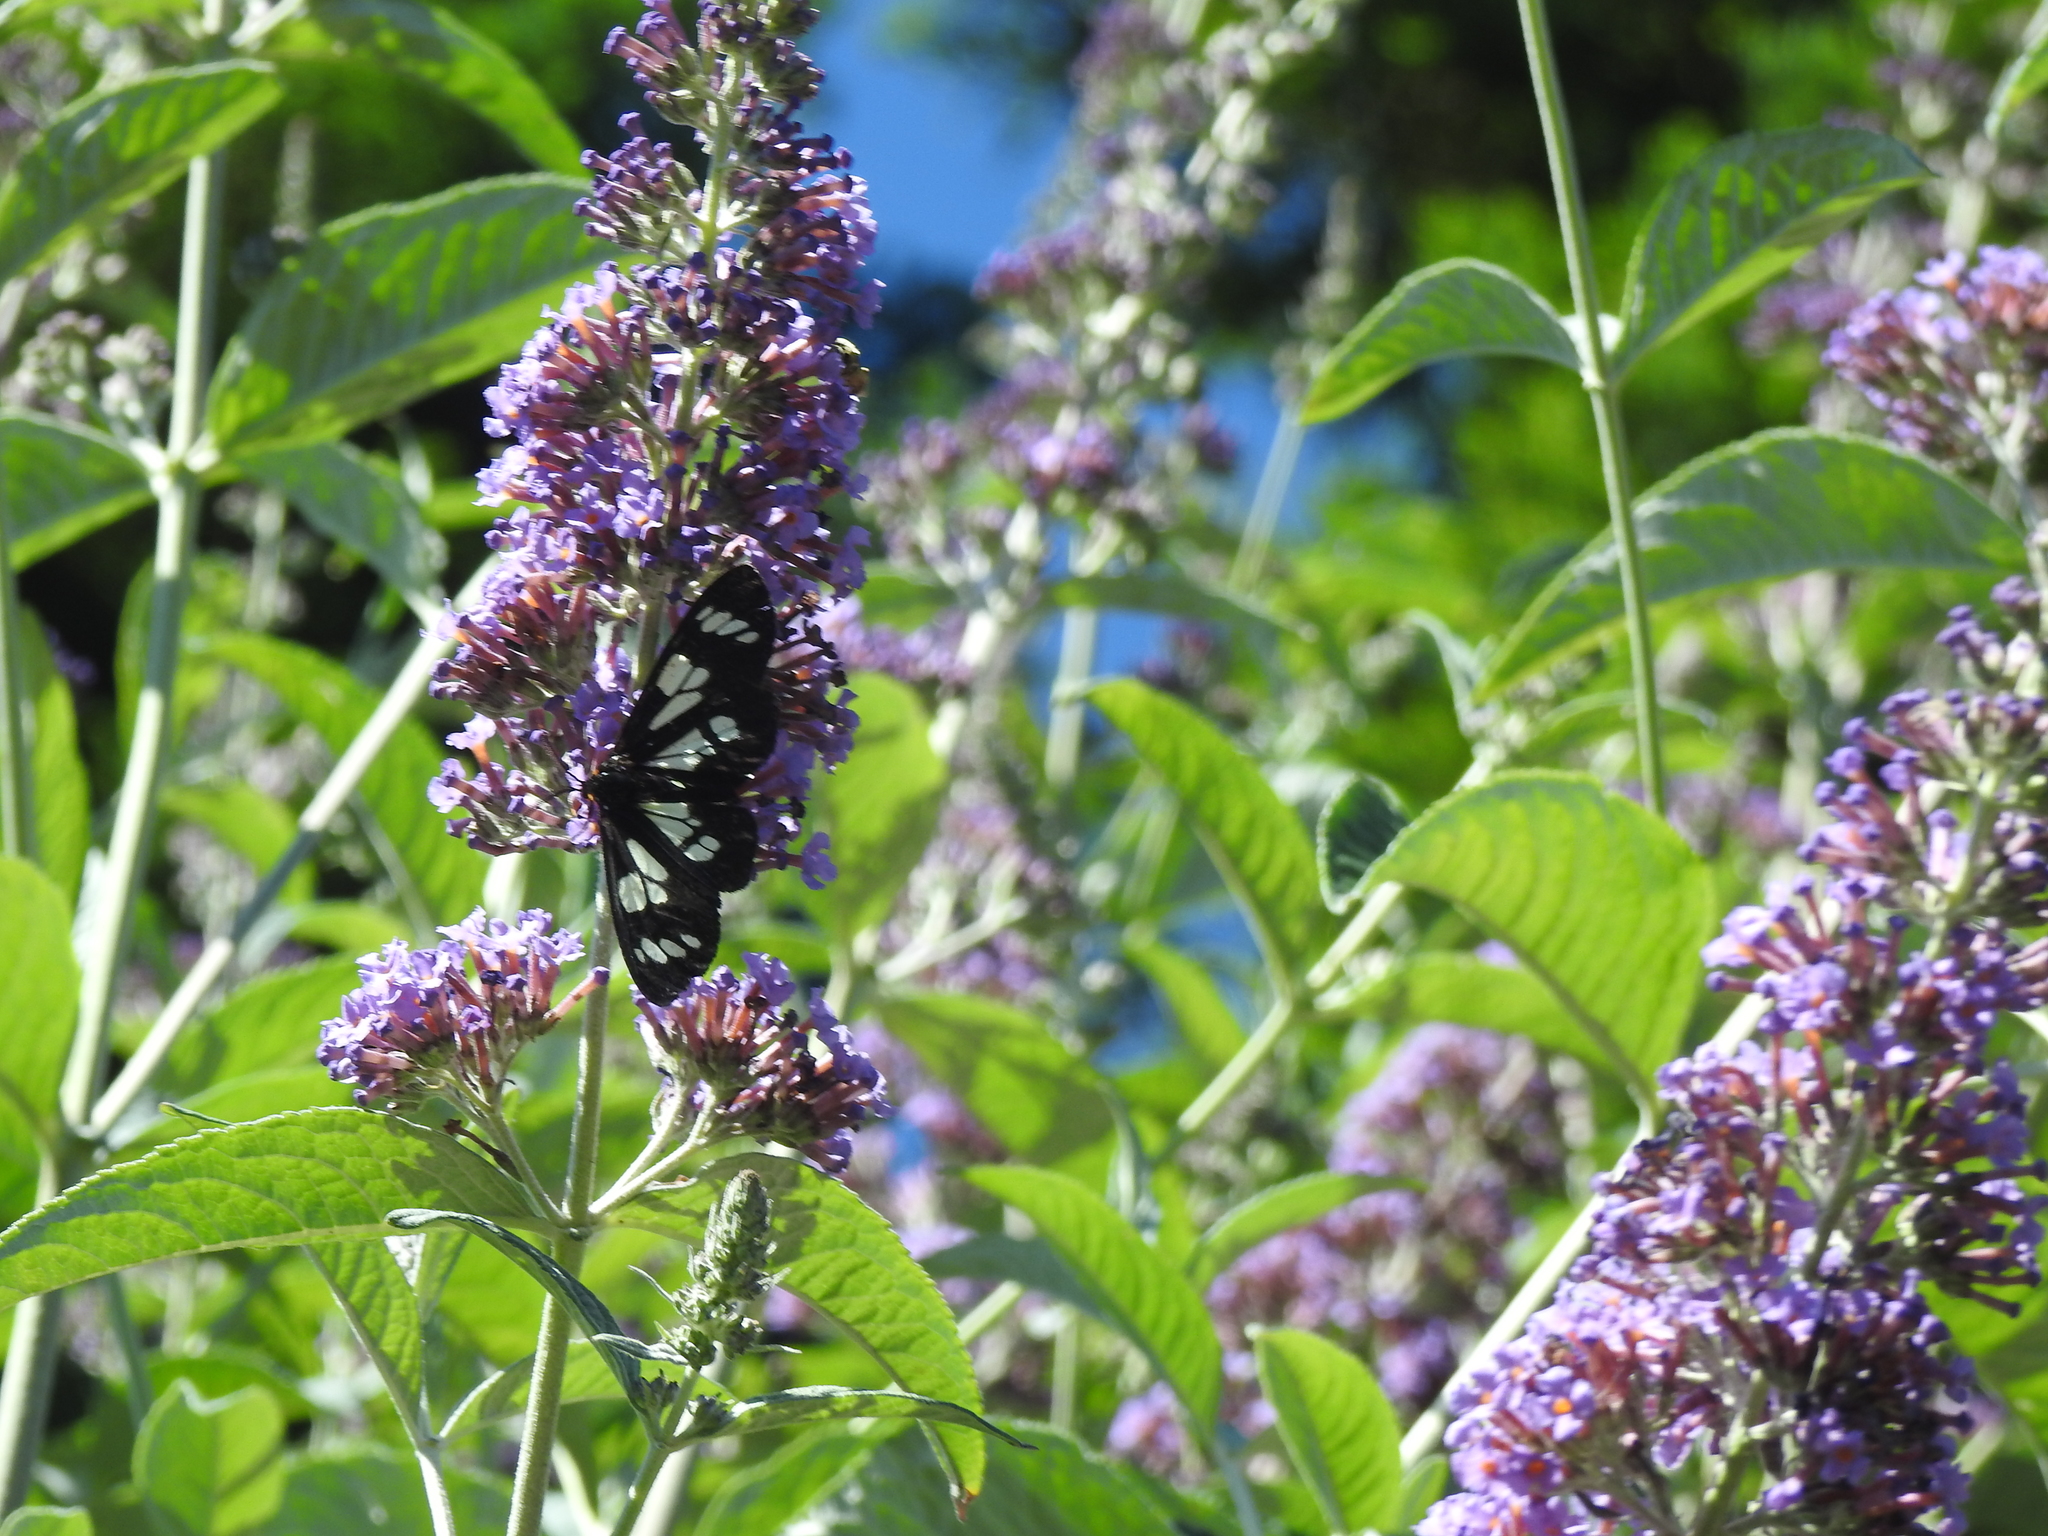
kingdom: Animalia
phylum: Arthropoda
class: Insecta
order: Lepidoptera
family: Erebidae
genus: Gnophaela
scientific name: Gnophaela latipennis
